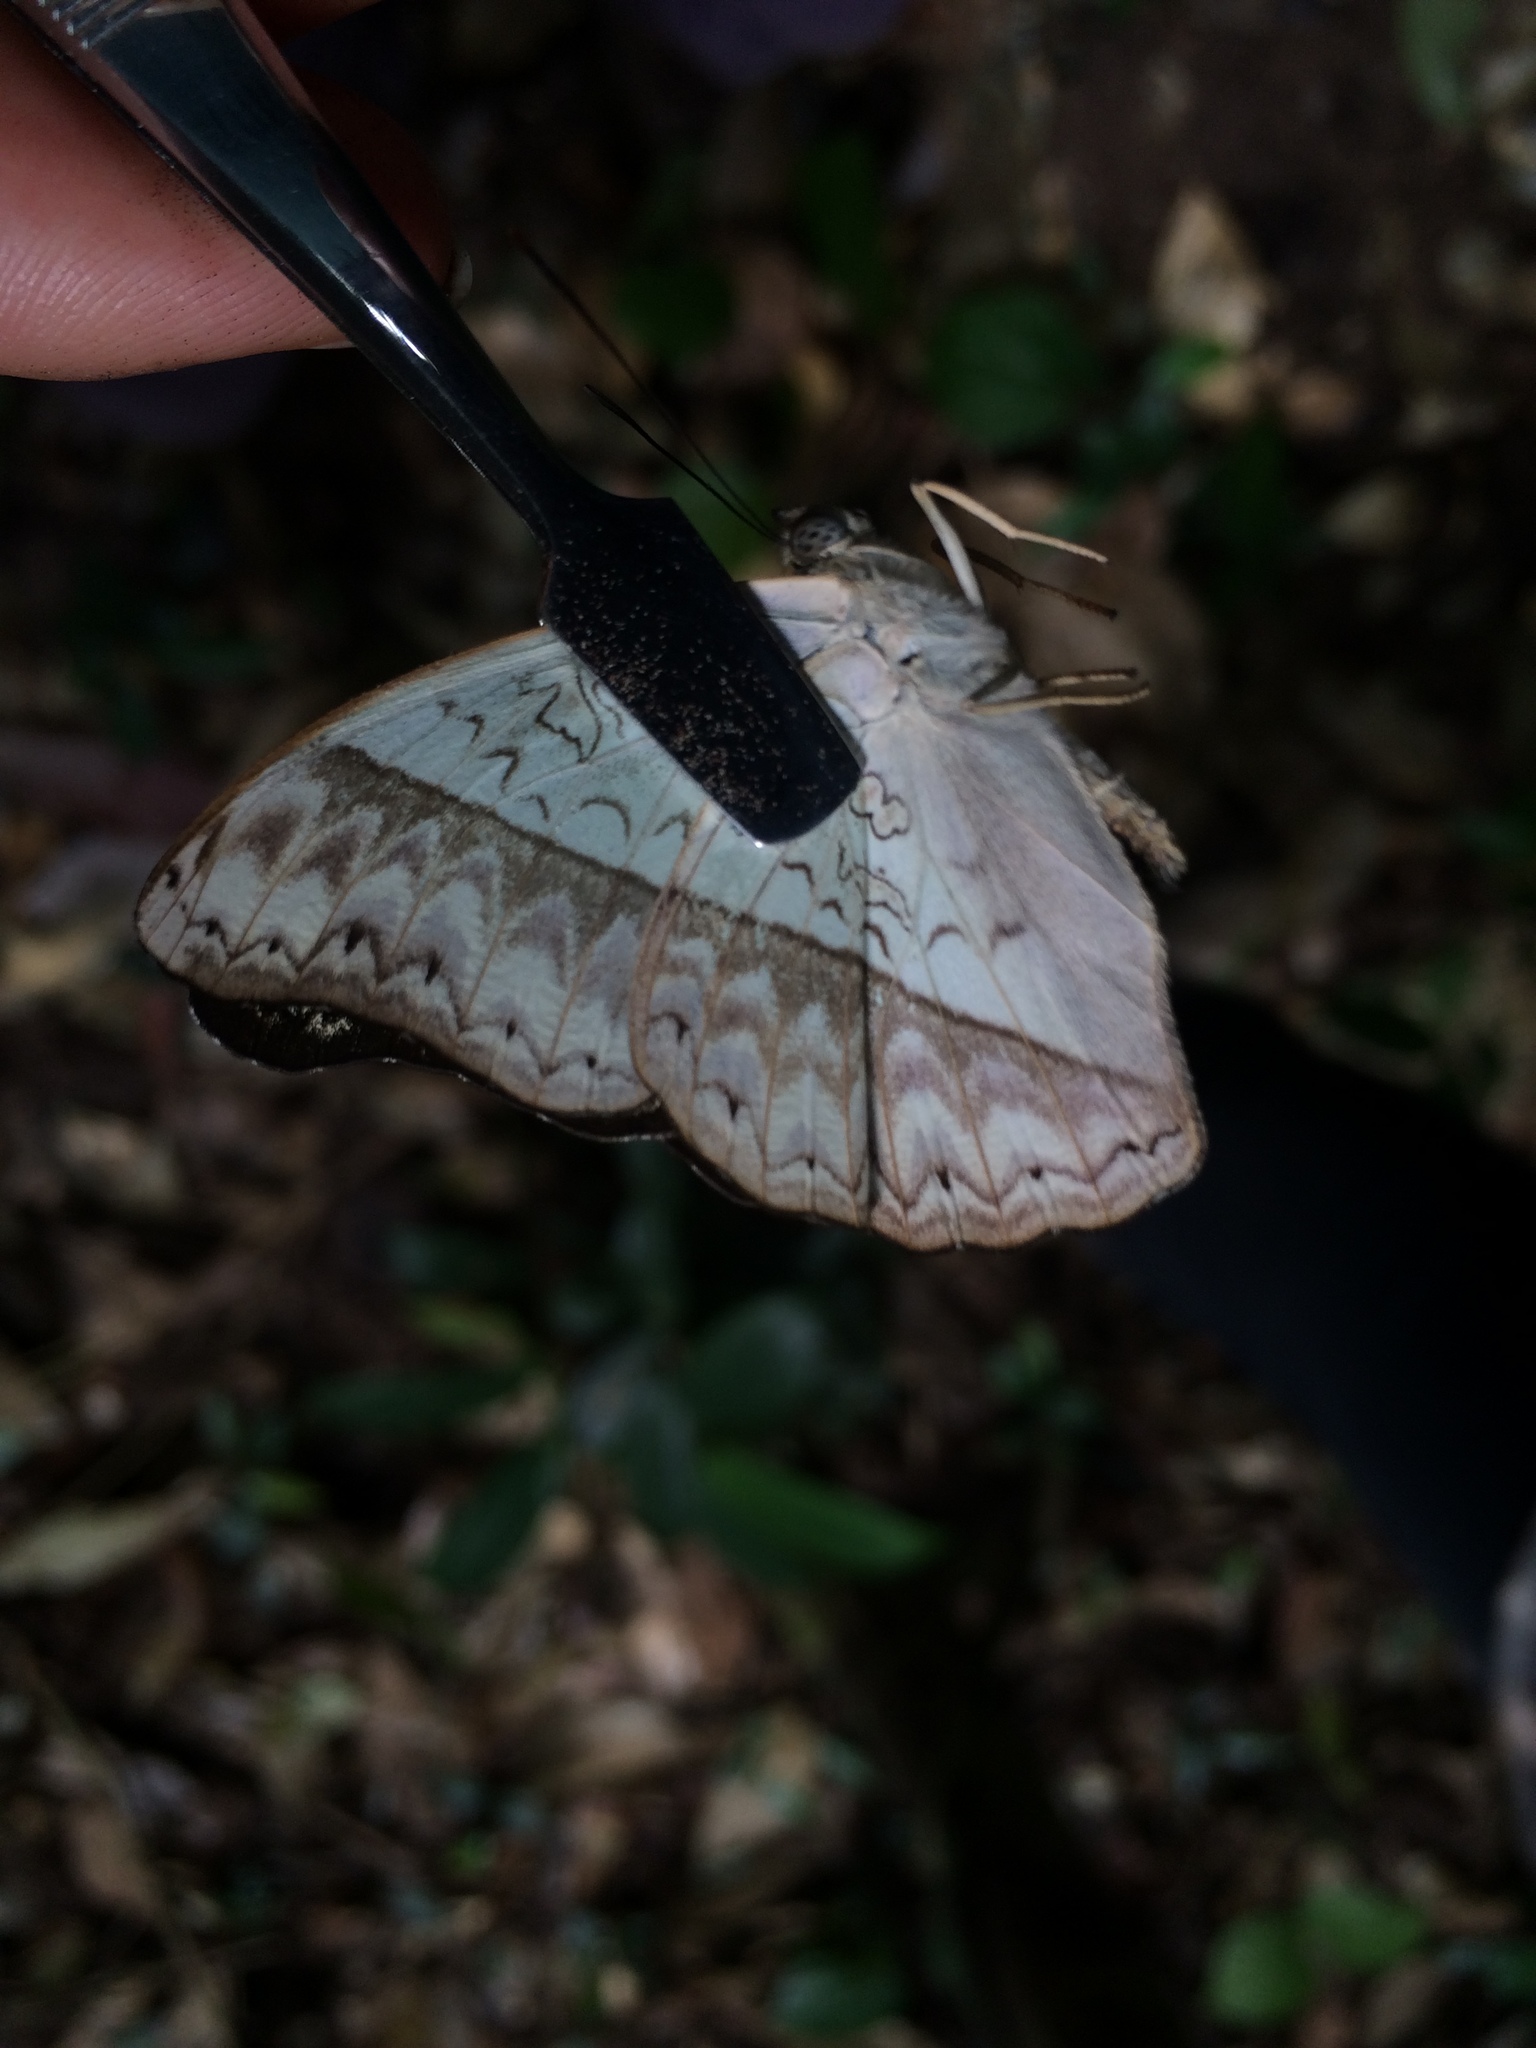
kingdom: Animalia
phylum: Arthropoda
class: Insecta
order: Lepidoptera
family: Nymphalidae
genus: Cymothoe
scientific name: Cymothoe caenis
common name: Common glider
